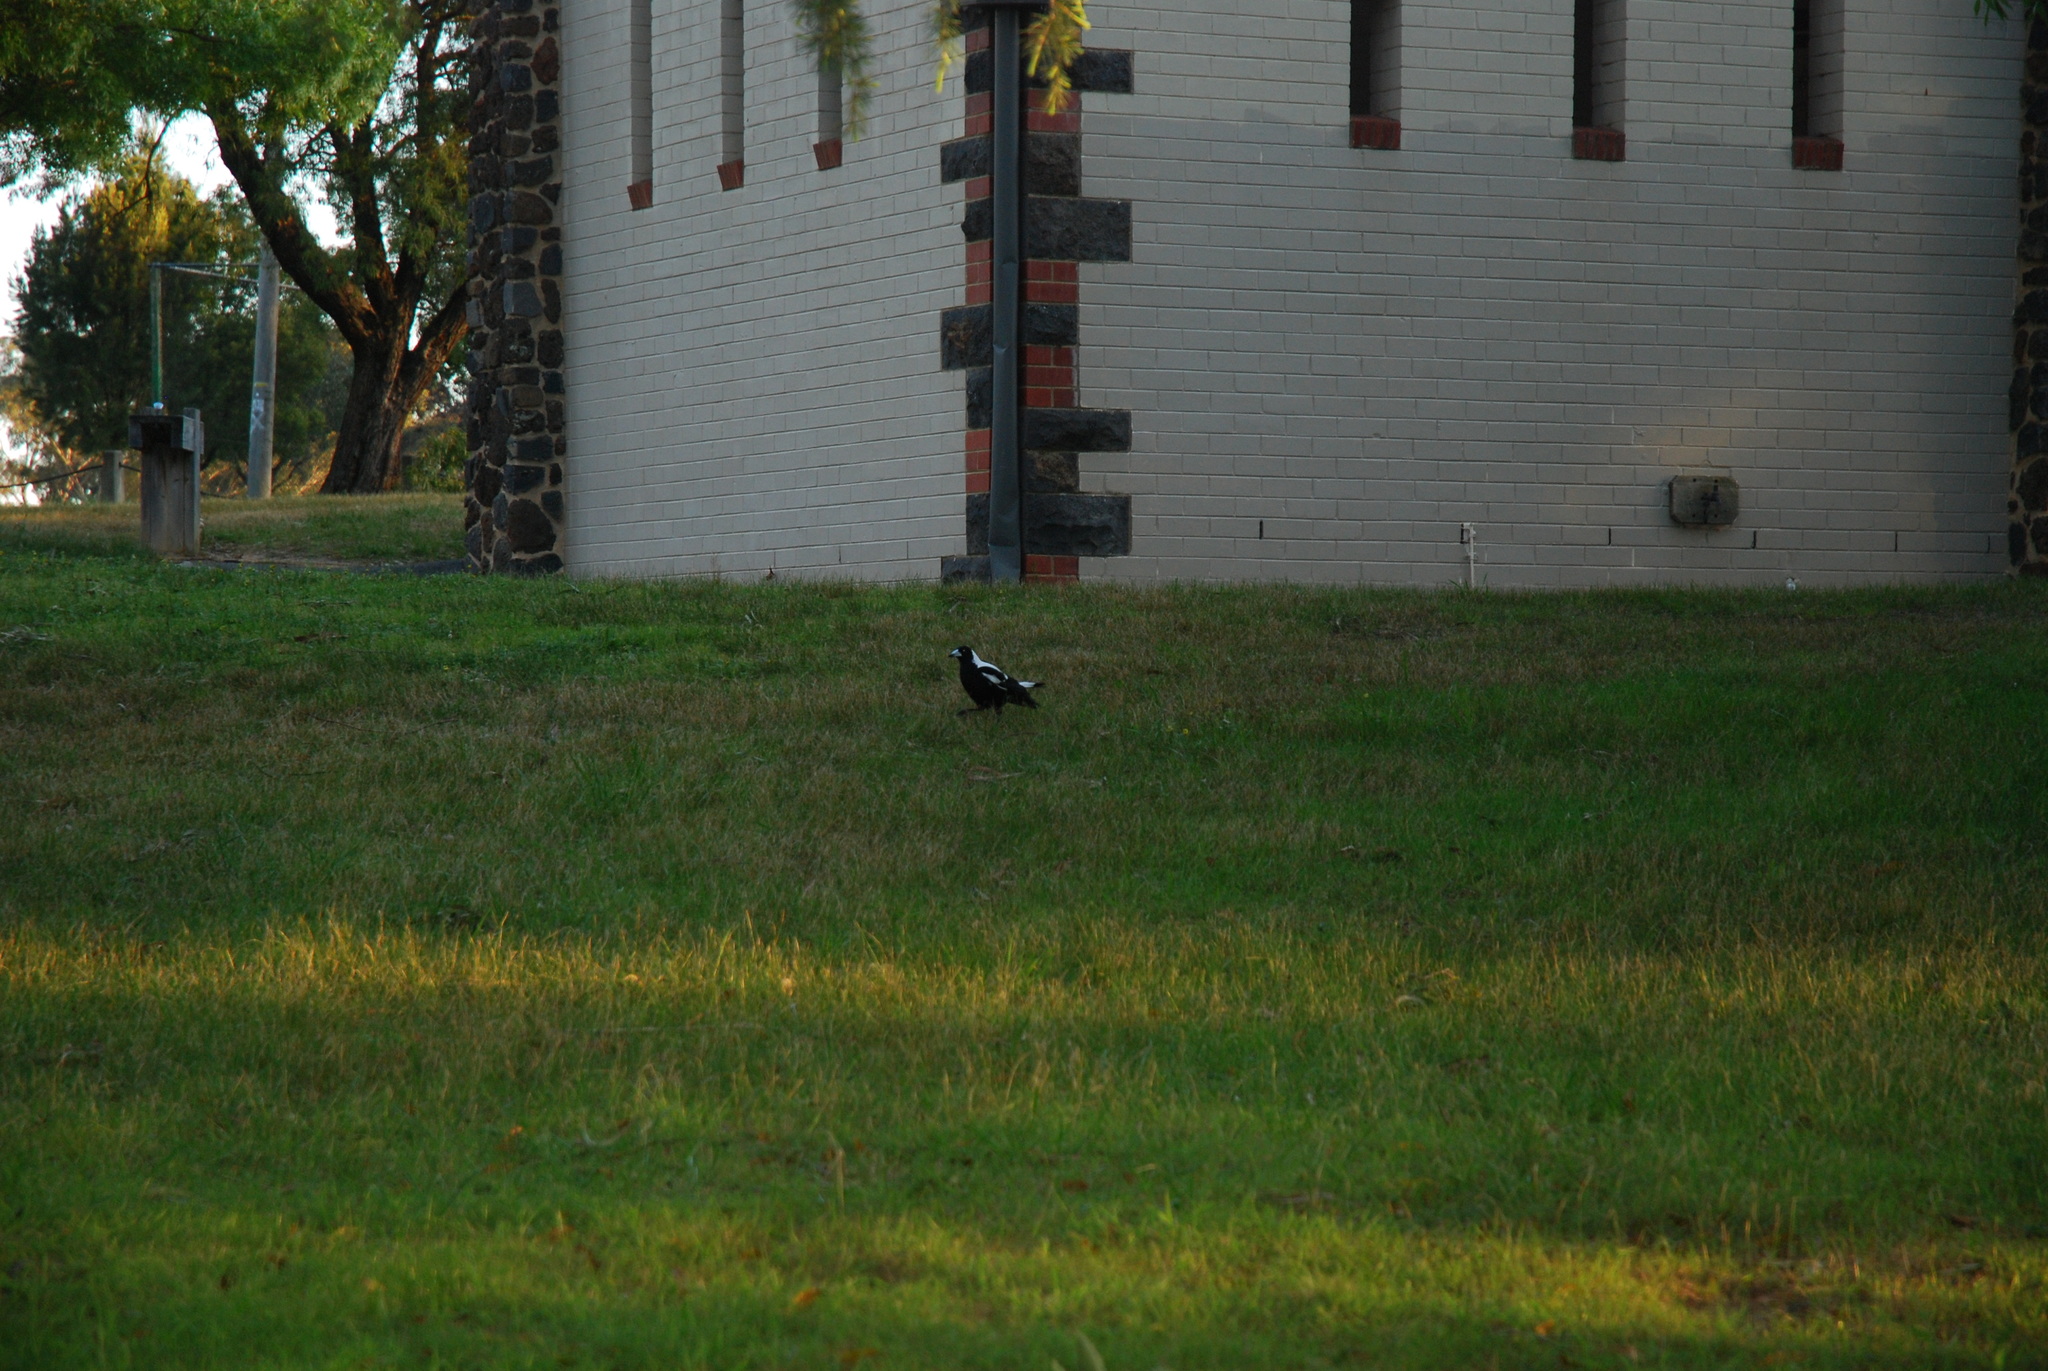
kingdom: Animalia
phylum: Chordata
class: Aves
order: Passeriformes
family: Cracticidae
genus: Gymnorhina
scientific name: Gymnorhina tibicen
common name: Australian magpie
